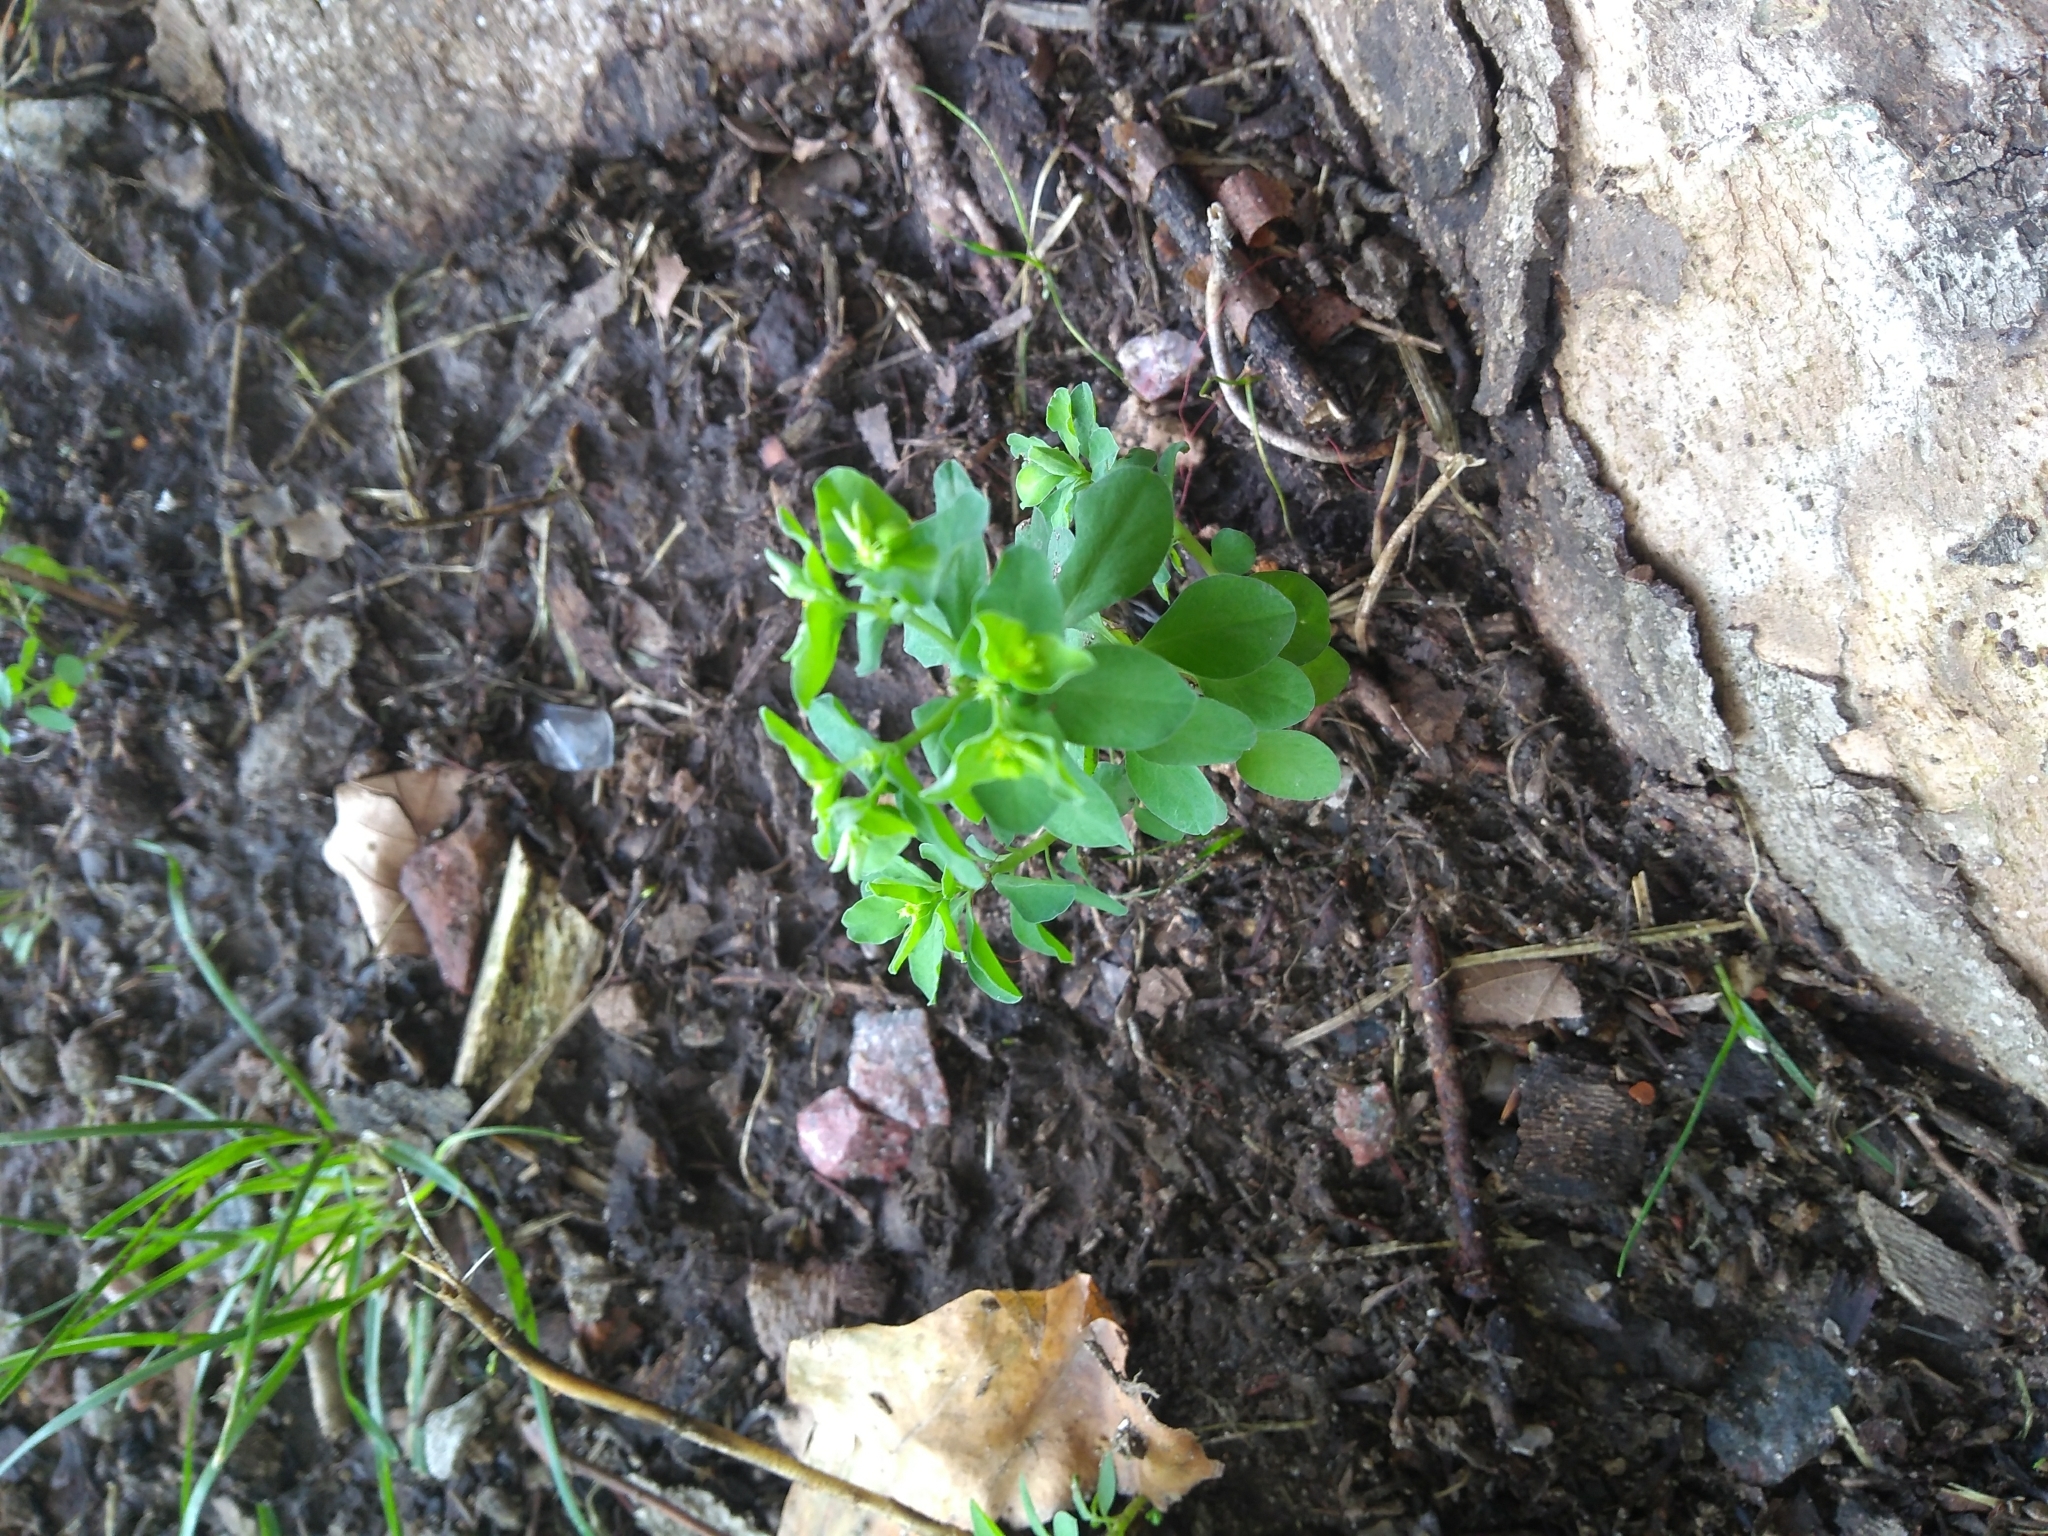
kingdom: Plantae
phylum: Tracheophyta
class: Magnoliopsida
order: Malpighiales
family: Euphorbiaceae
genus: Euphorbia
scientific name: Euphorbia peplus
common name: Petty spurge
